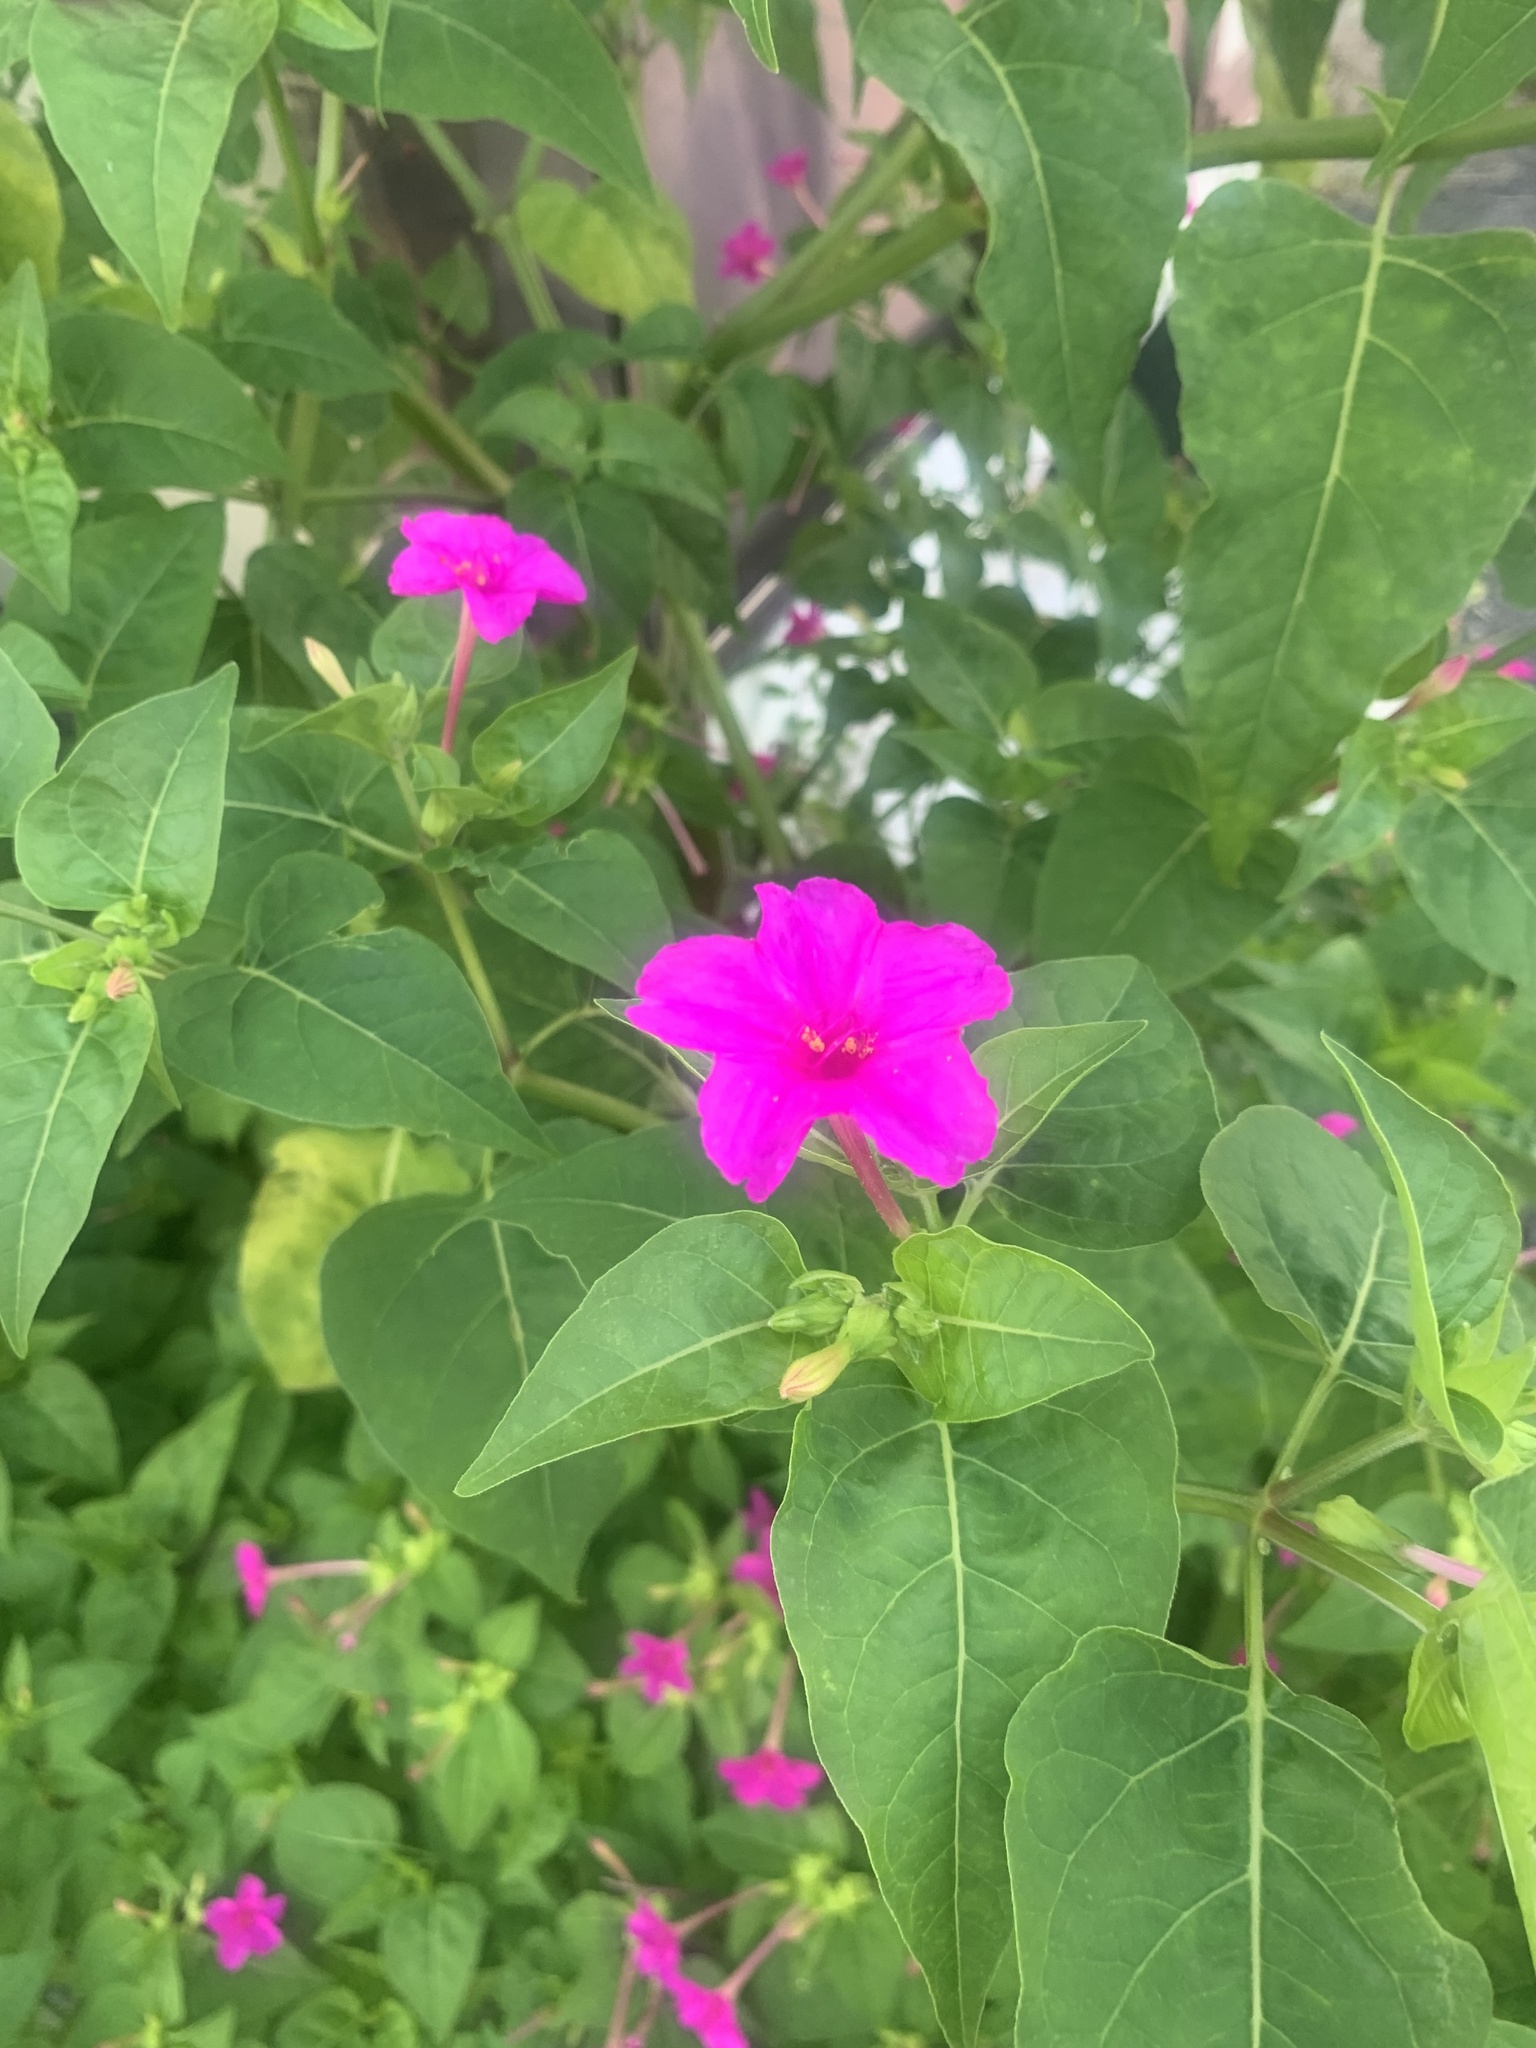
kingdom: Plantae
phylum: Tracheophyta
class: Magnoliopsida
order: Caryophyllales
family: Nyctaginaceae
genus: Mirabilis
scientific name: Mirabilis jalapa
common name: Marvel-of-peru
